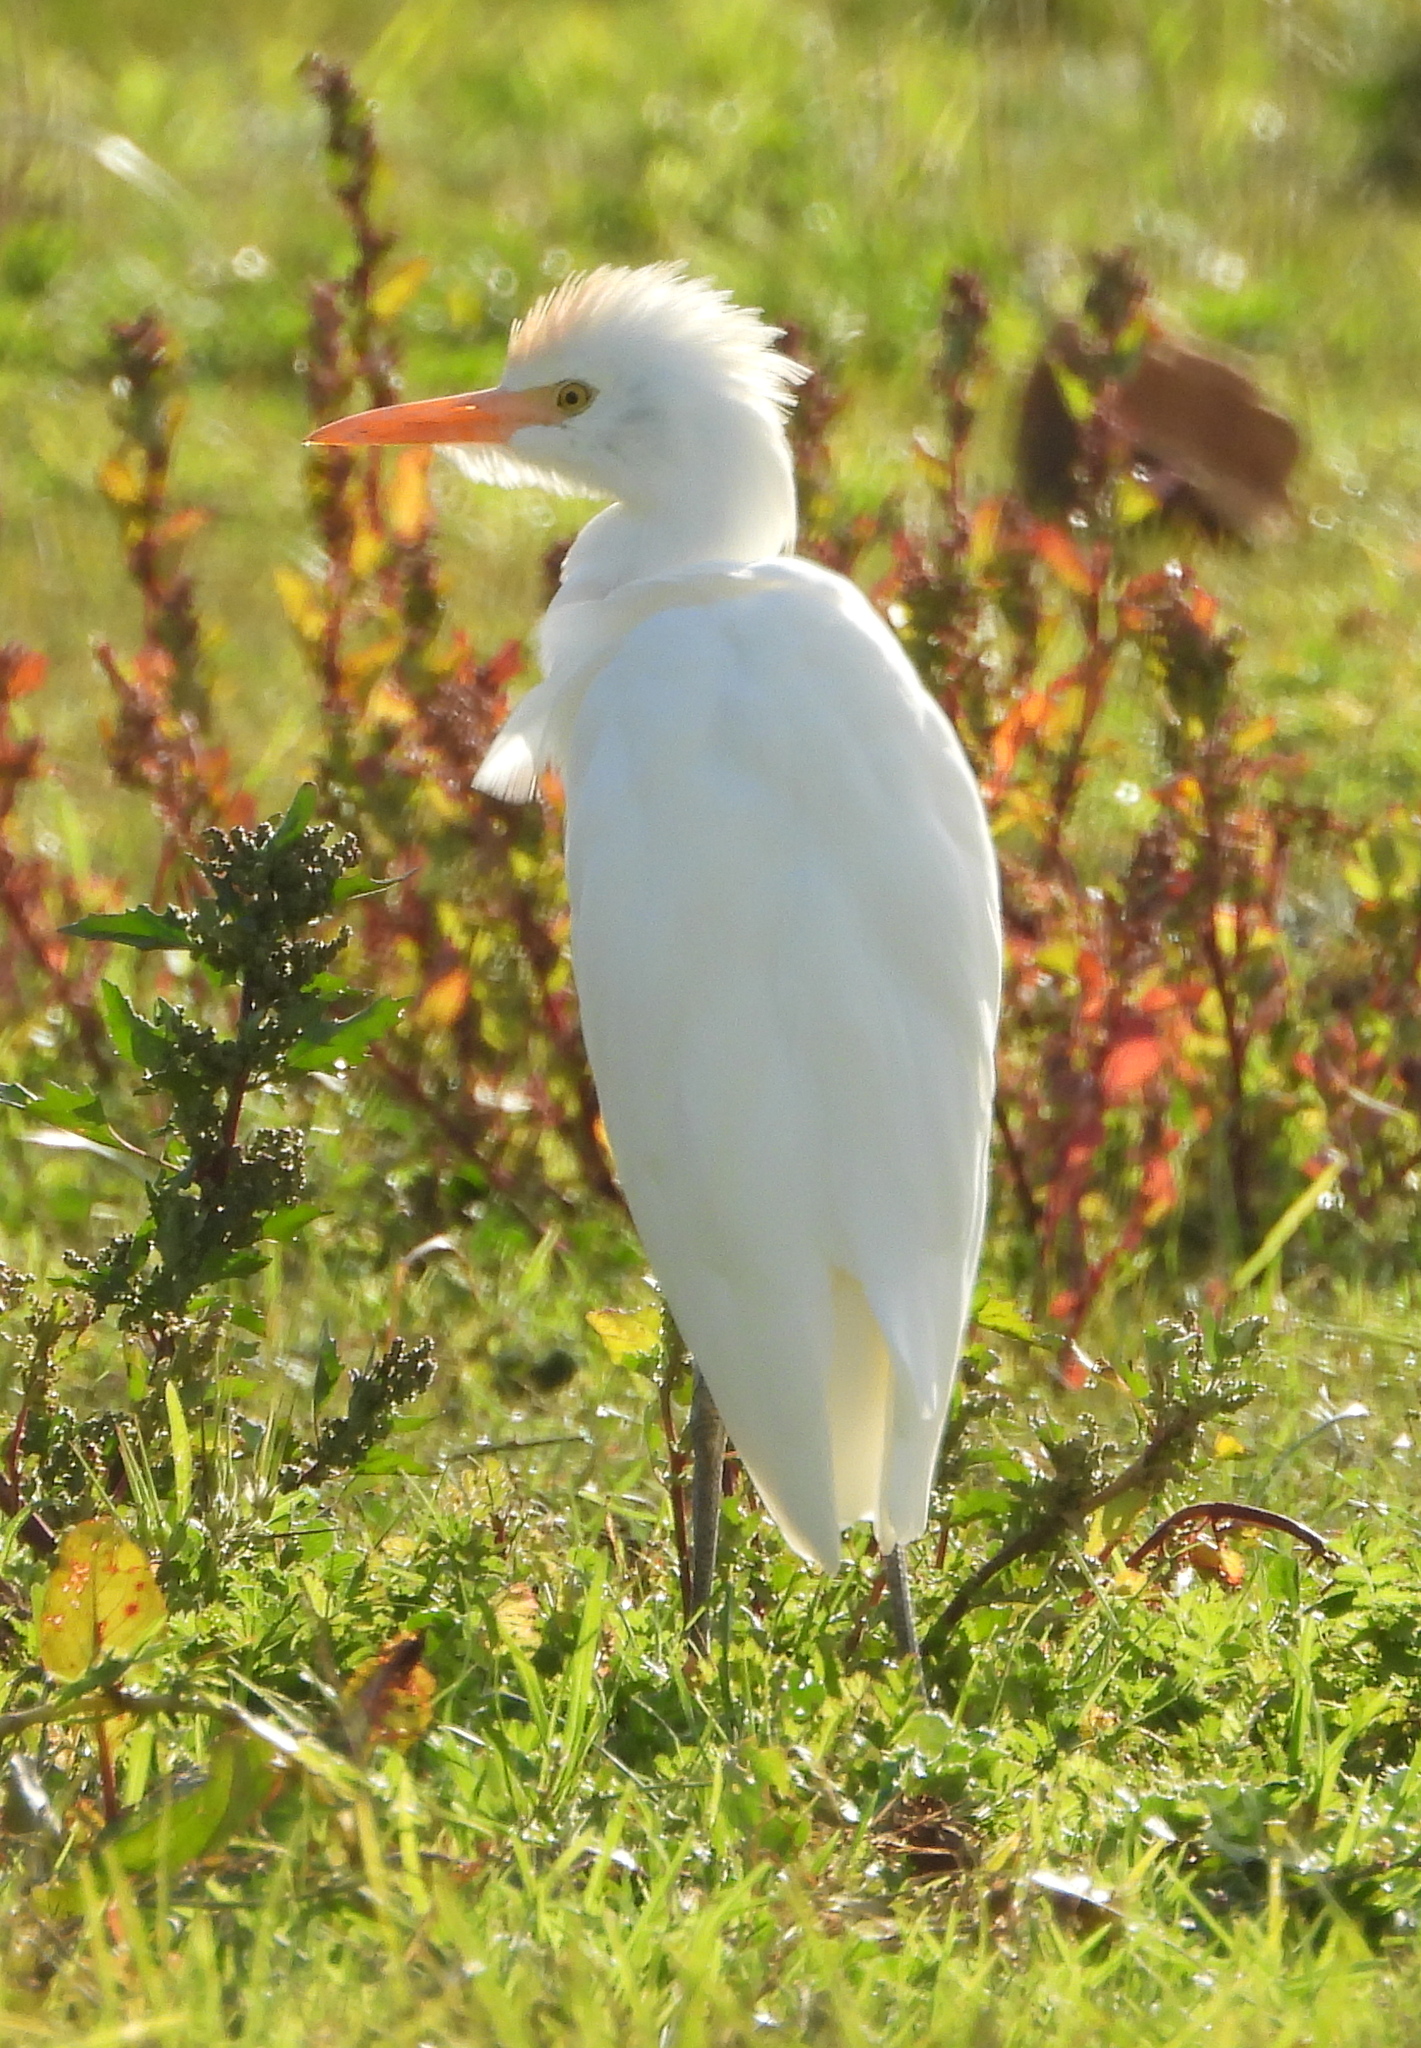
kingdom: Animalia
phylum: Chordata
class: Aves
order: Pelecaniformes
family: Ardeidae
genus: Bubulcus
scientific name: Bubulcus ibis
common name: Cattle egret
